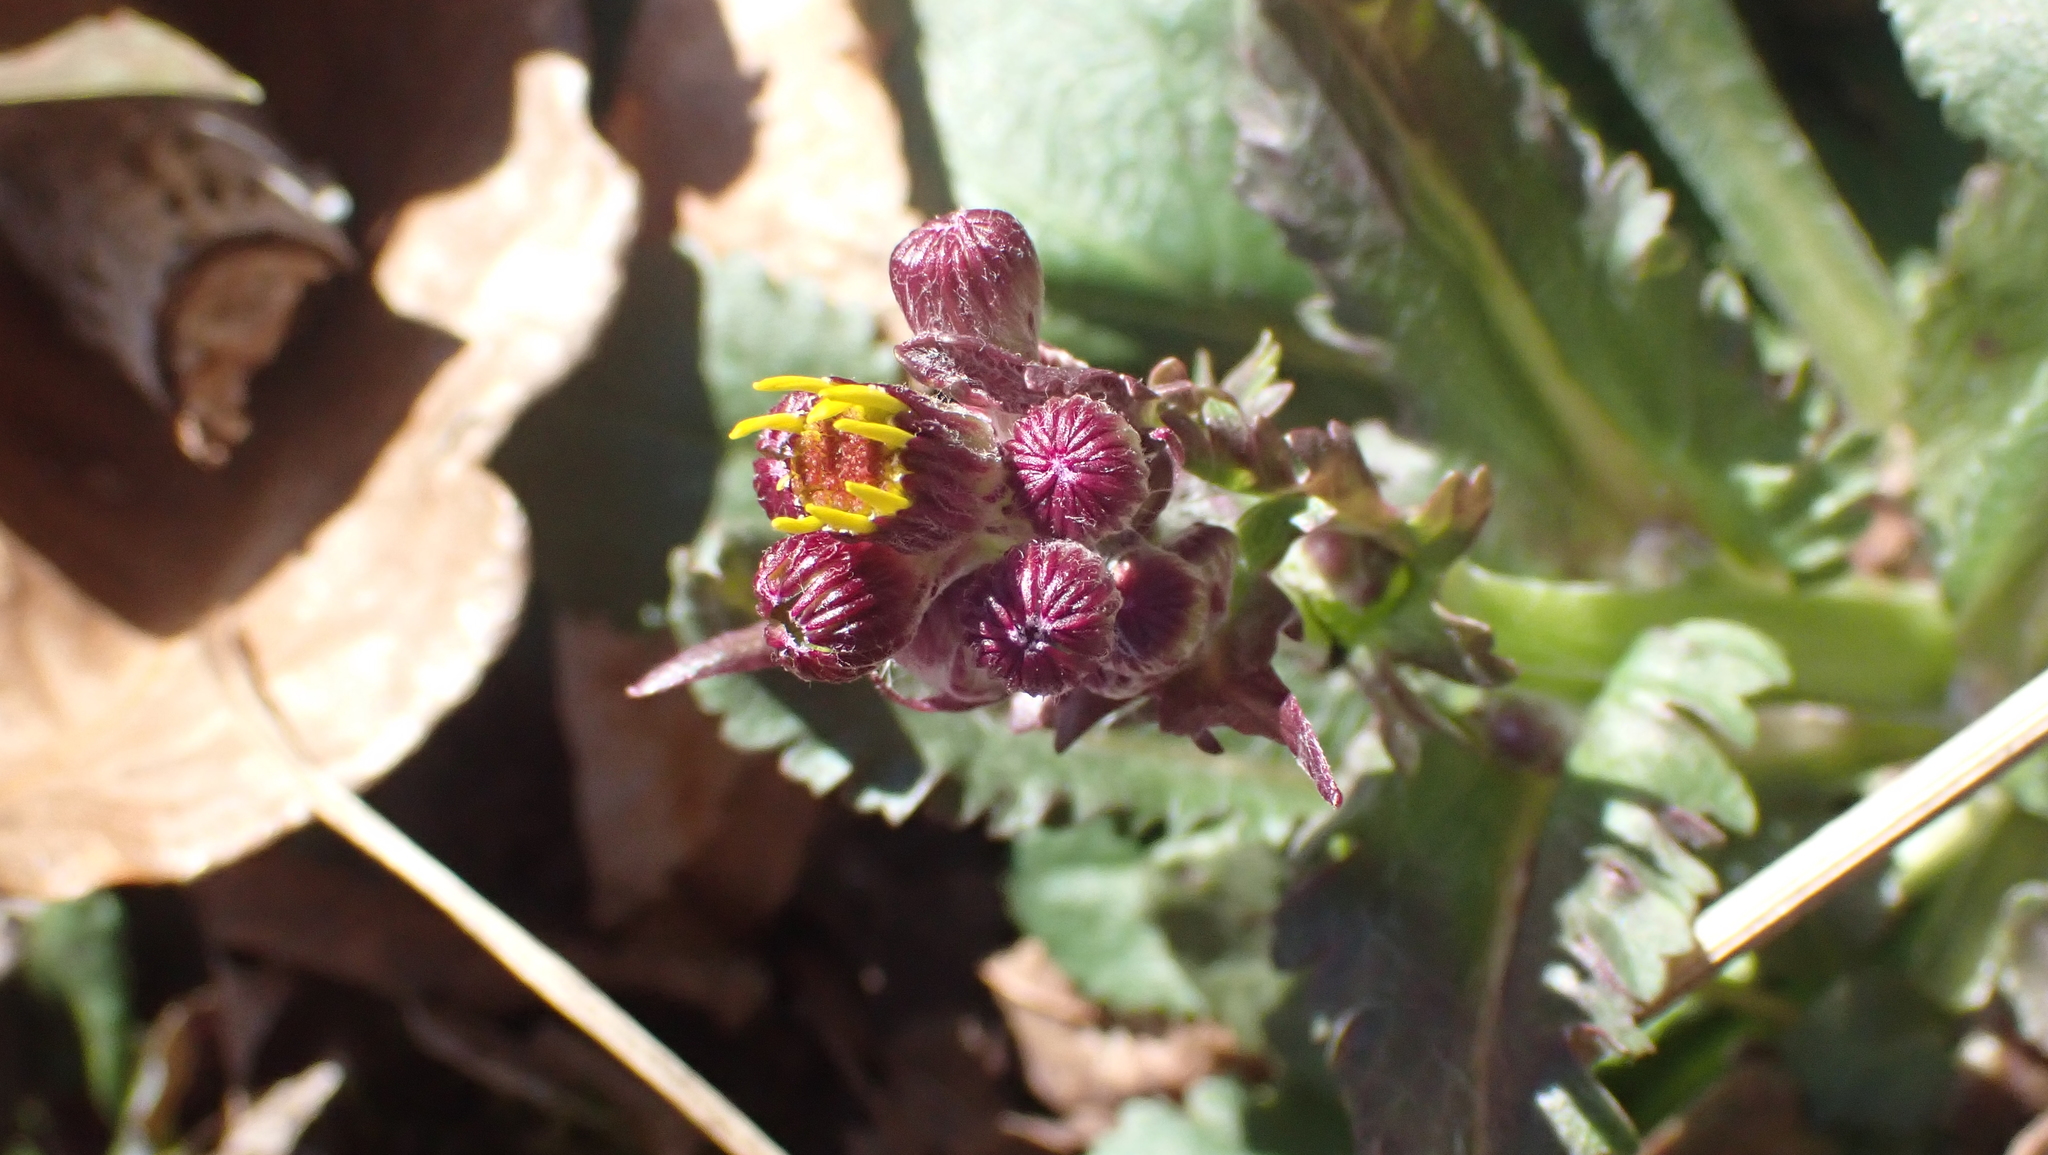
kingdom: Plantae
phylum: Tracheophyta
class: Magnoliopsida
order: Asterales
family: Asteraceae
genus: Packera
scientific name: Packera obovata
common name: Round-leaf ragwort
